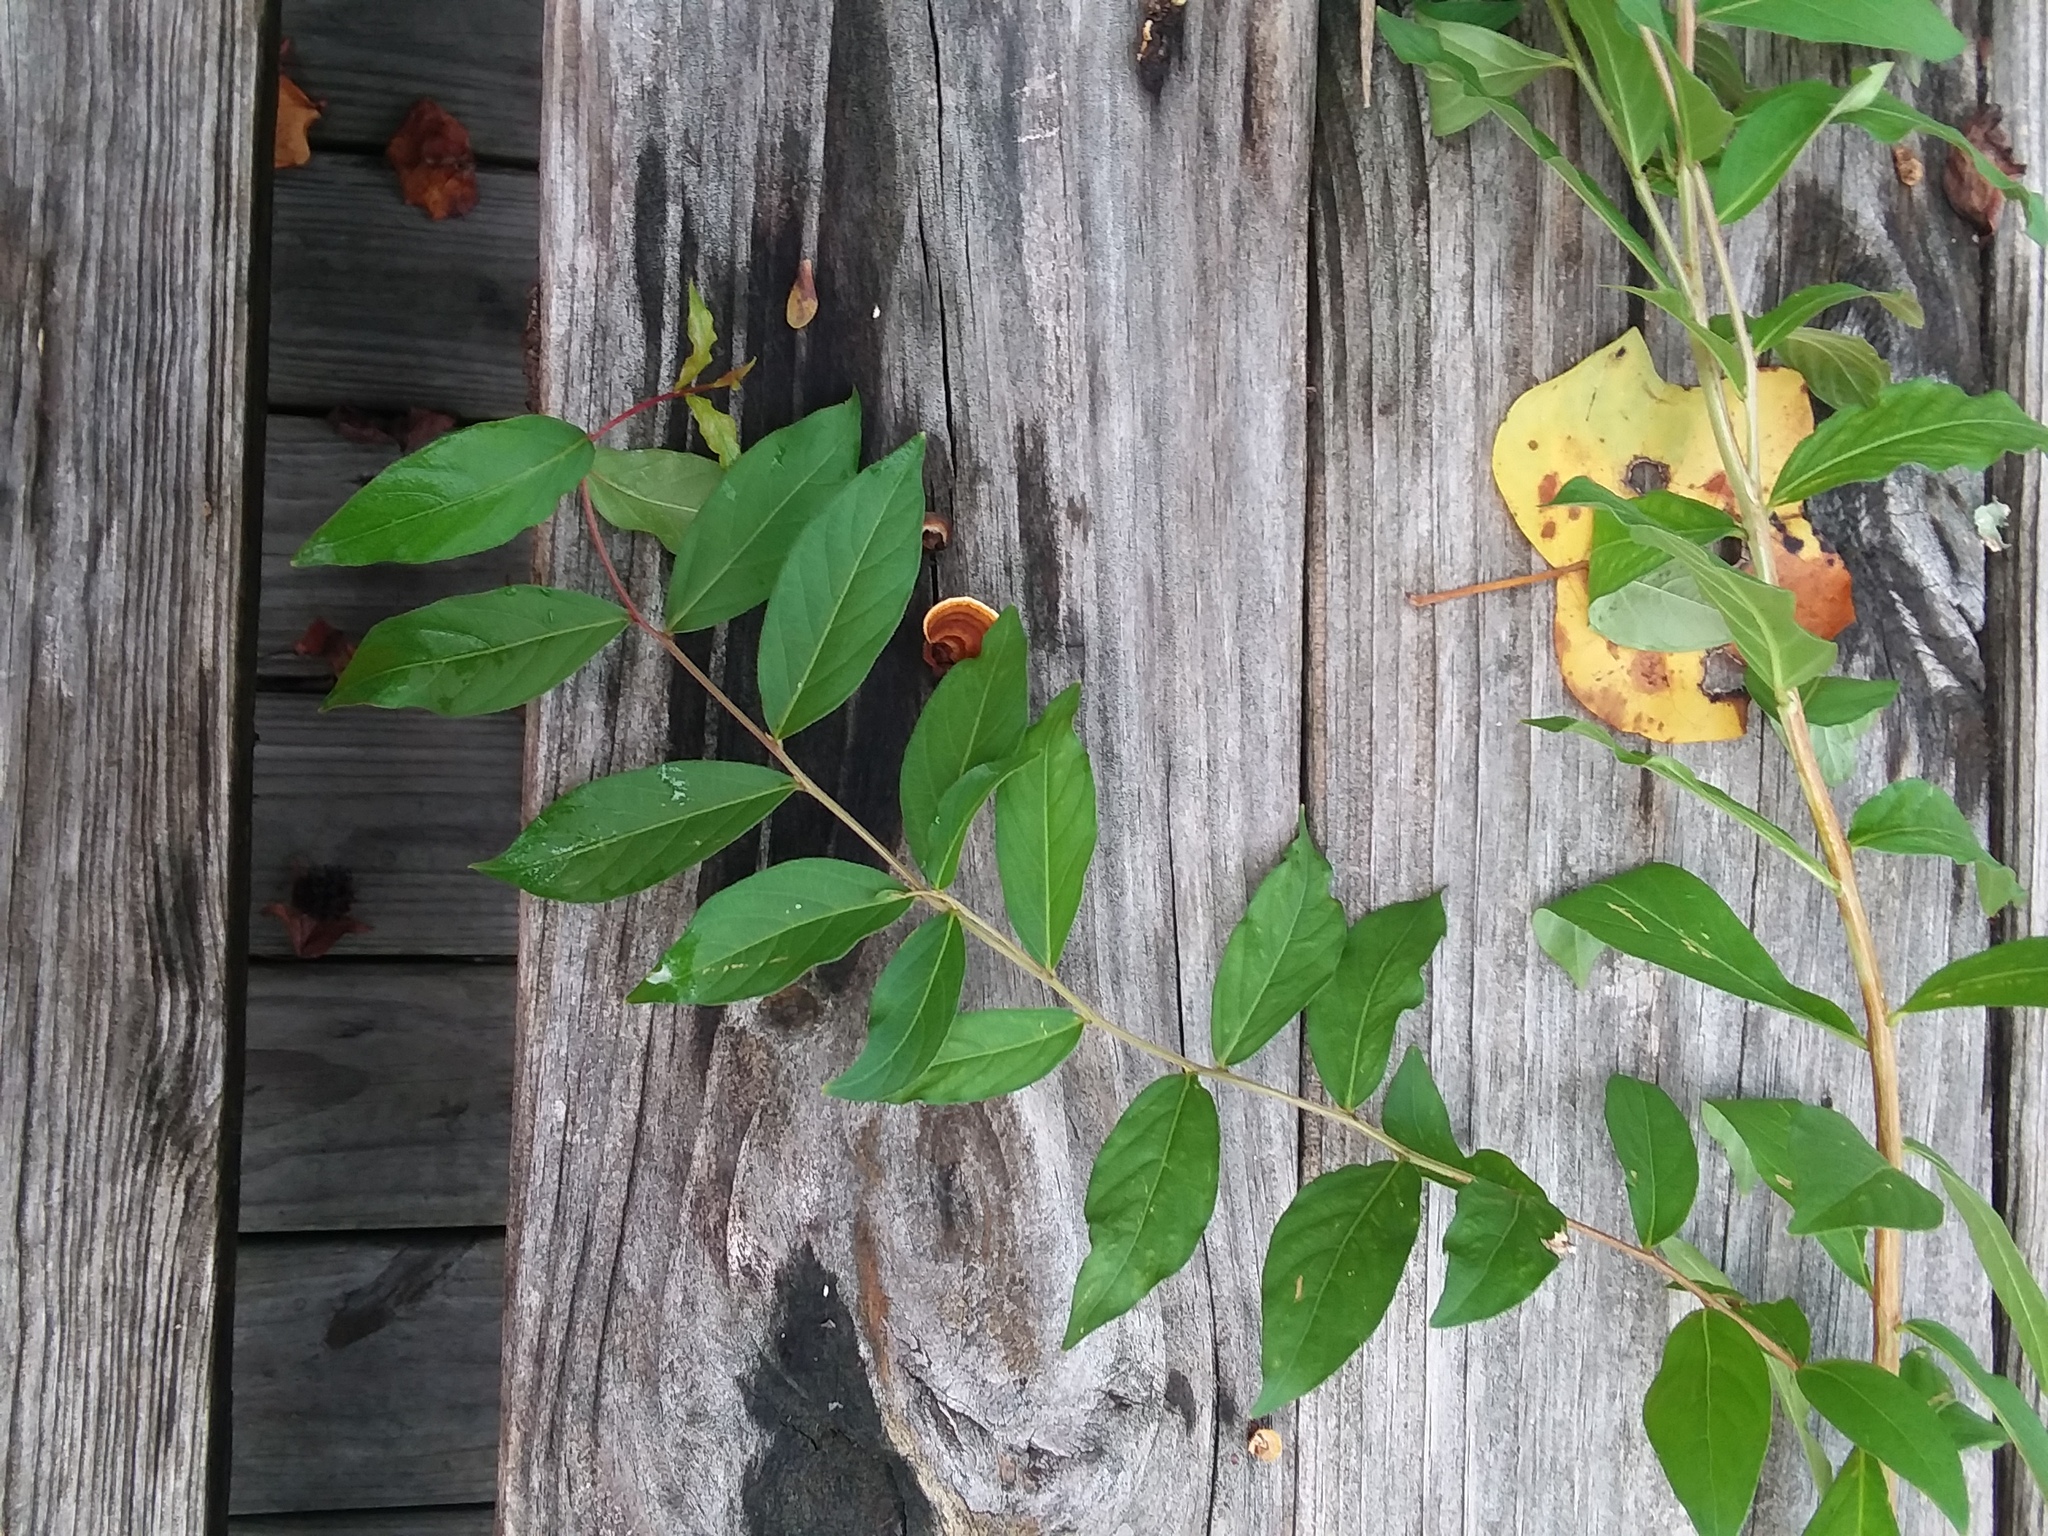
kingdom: Plantae
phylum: Tracheophyta
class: Magnoliopsida
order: Myrtales
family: Lythraceae
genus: Lagerstroemia
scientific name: Lagerstroemia indica
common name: Crape-myrtle
